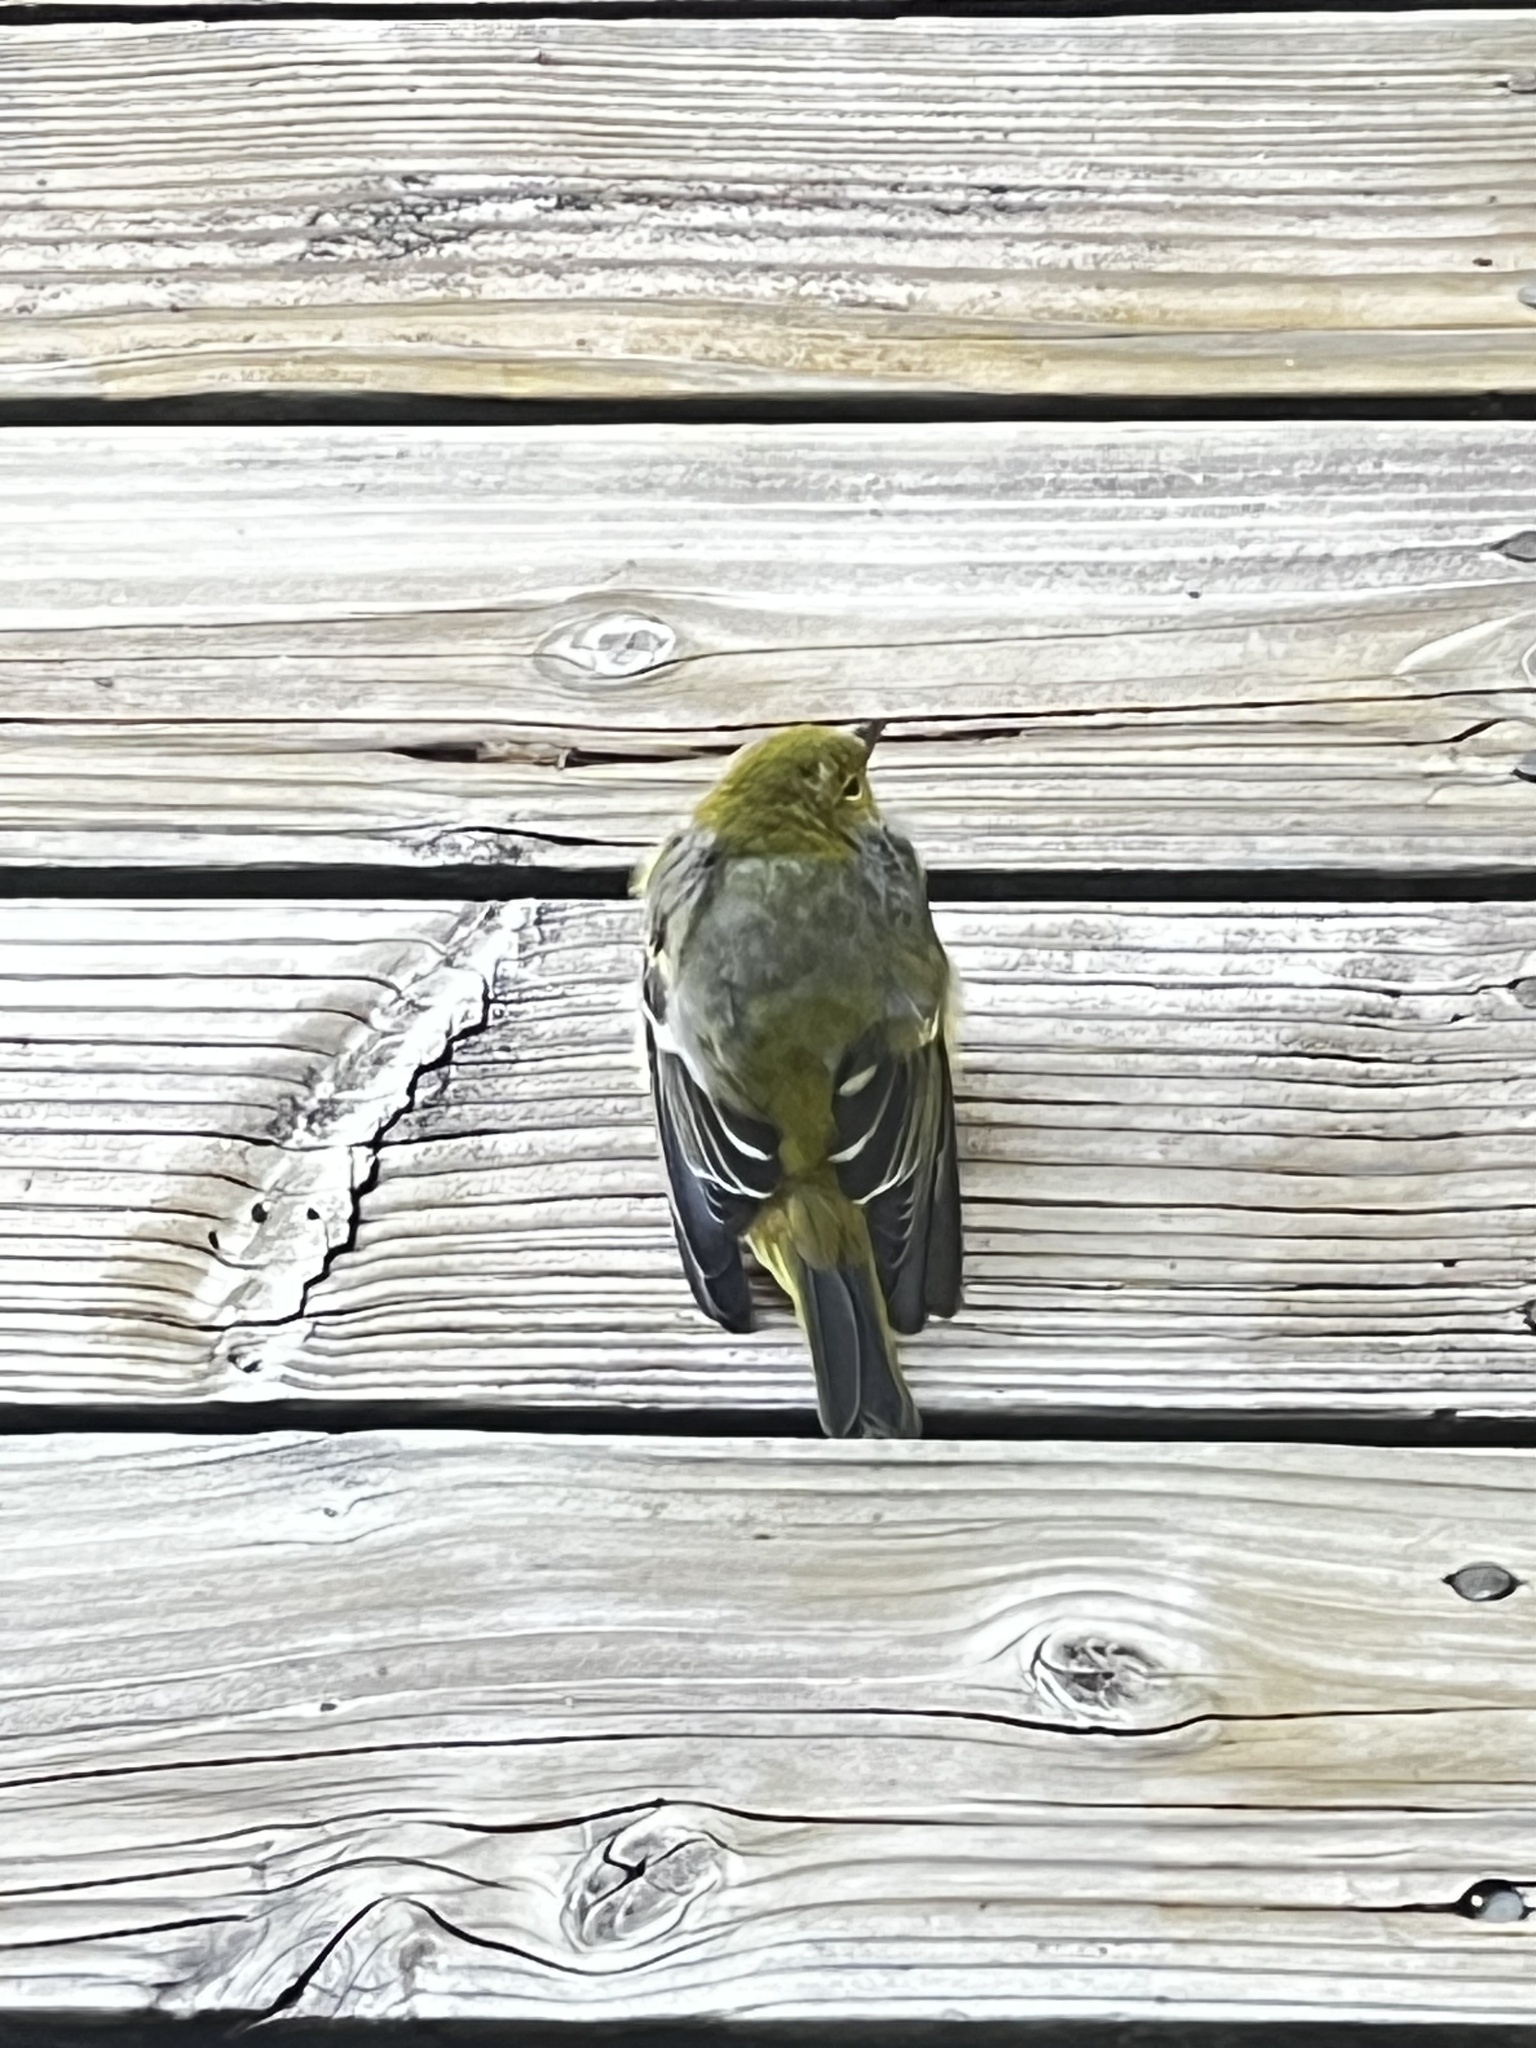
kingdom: Animalia
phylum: Chordata
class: Aves
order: Passeriformes
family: Cardinalidae
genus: Piranga
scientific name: Piranga ludoviciana
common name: Western tanager
